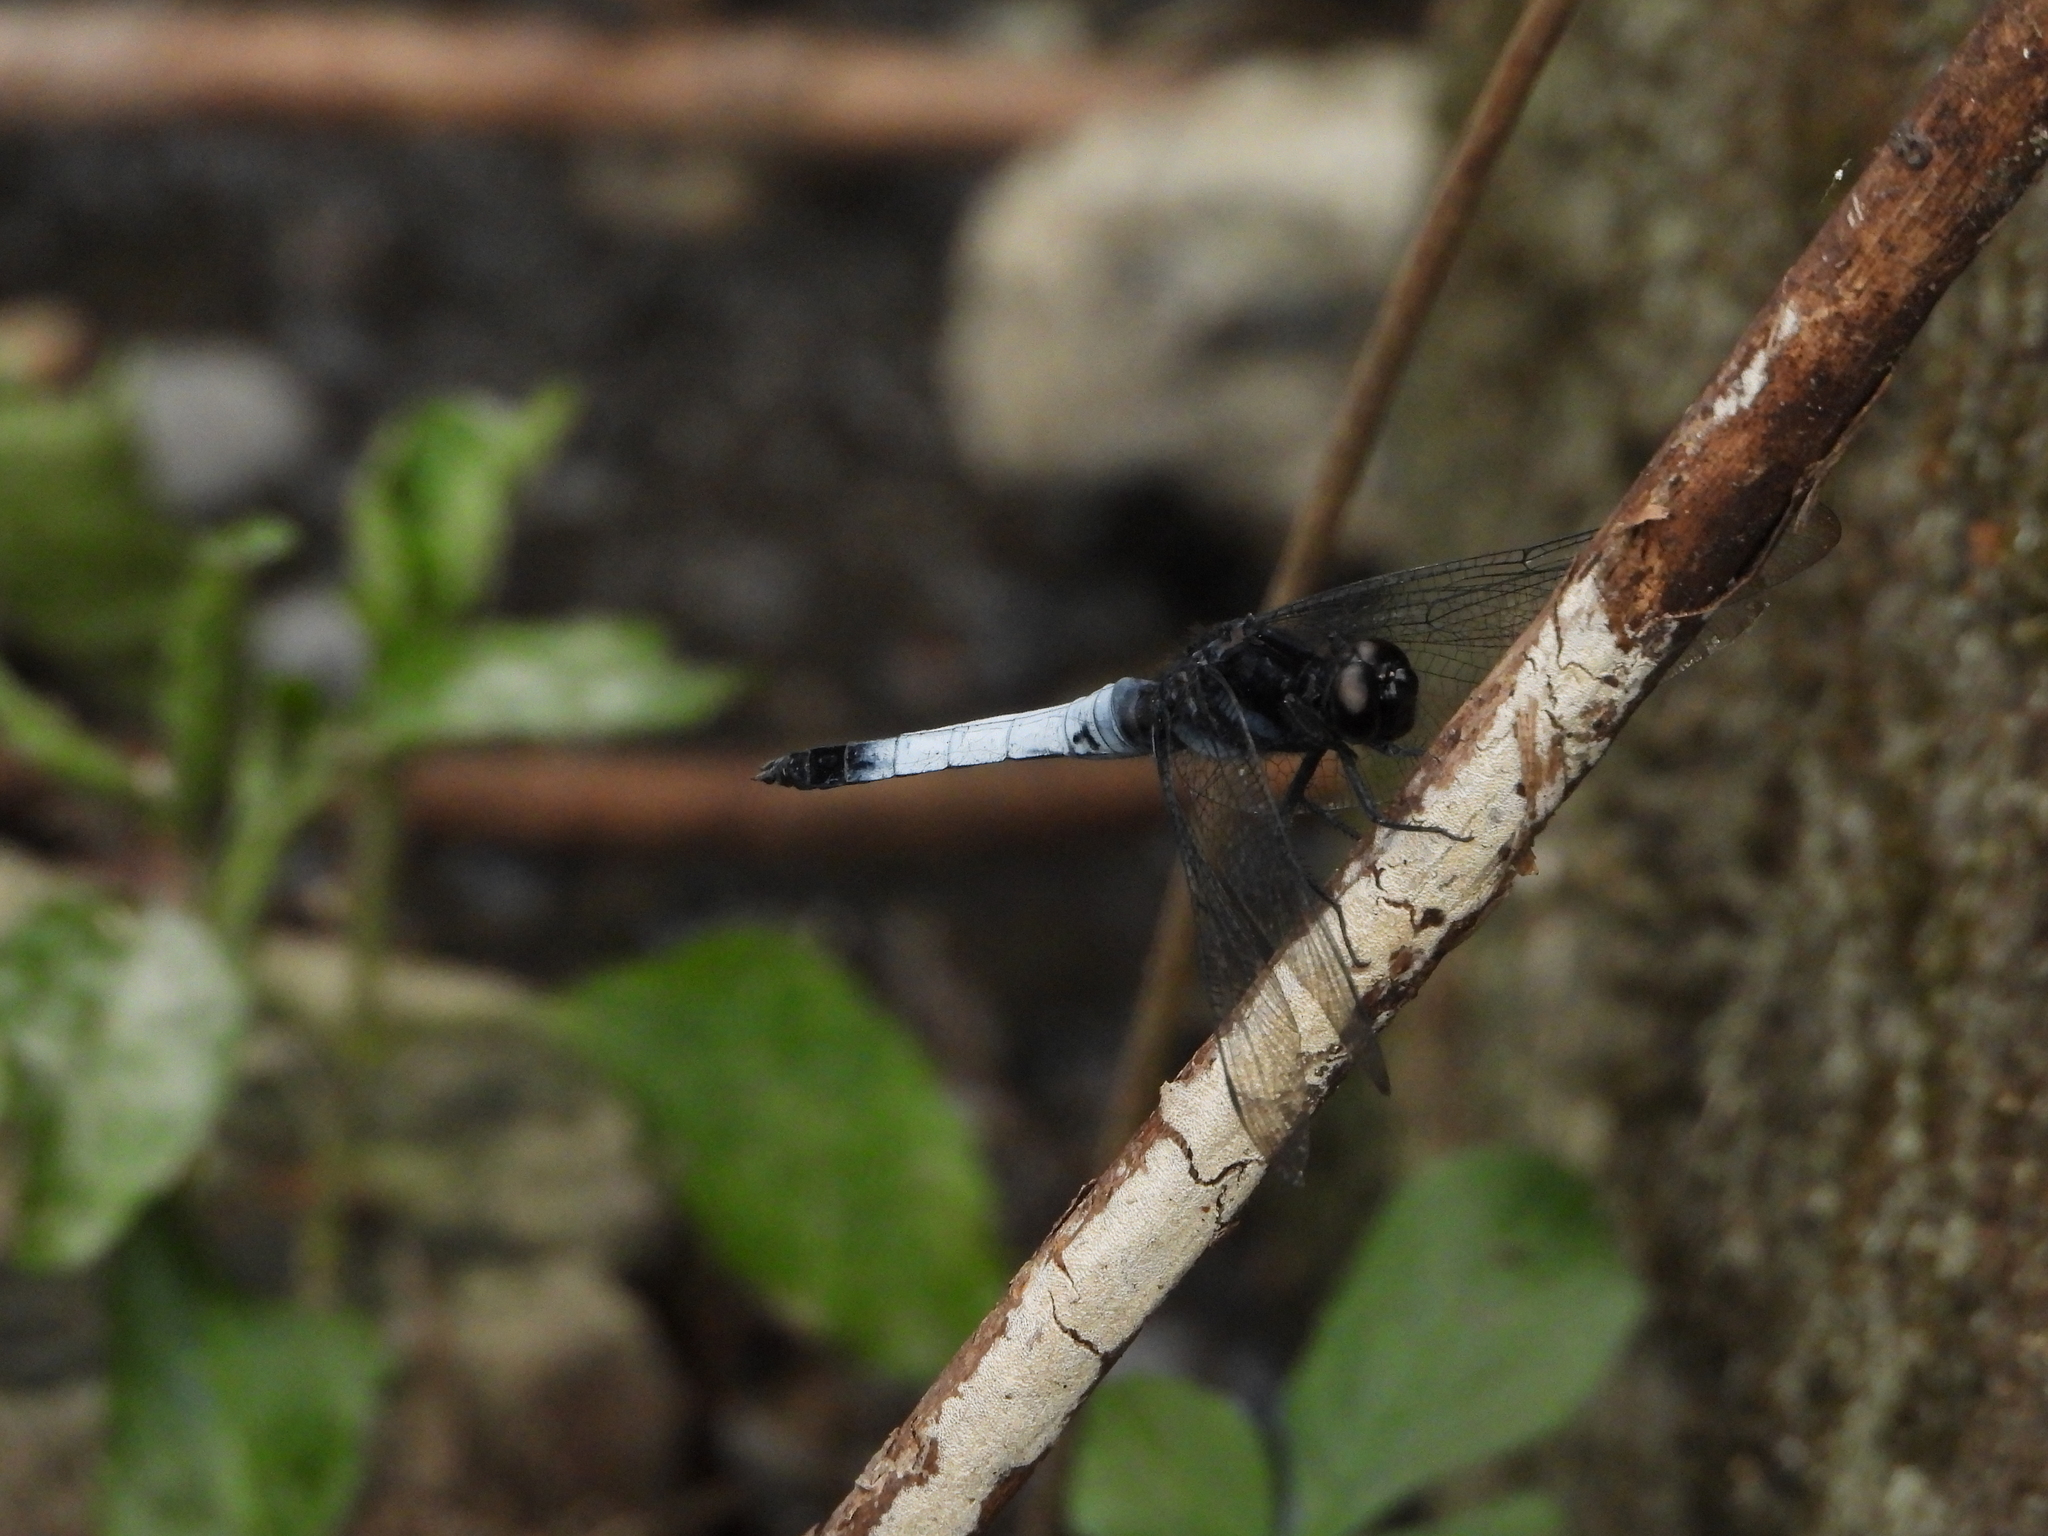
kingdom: Animalia
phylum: Arthropoda
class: Insecta
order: Odonata
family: Libellulidae
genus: Orthetrum
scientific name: Orthetrum triangulare
